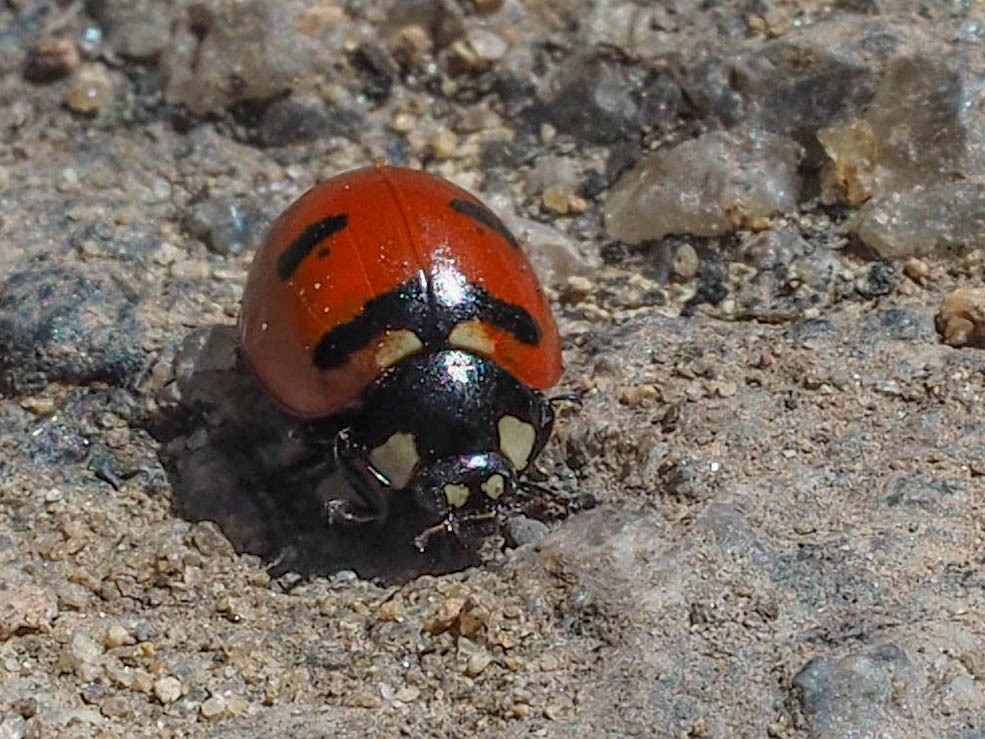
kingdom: Animalia
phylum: Arthropoda
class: Insecta
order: Coleoptera
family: Coccinellidae
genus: Coccinella
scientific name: Coccinella transversoguttata
